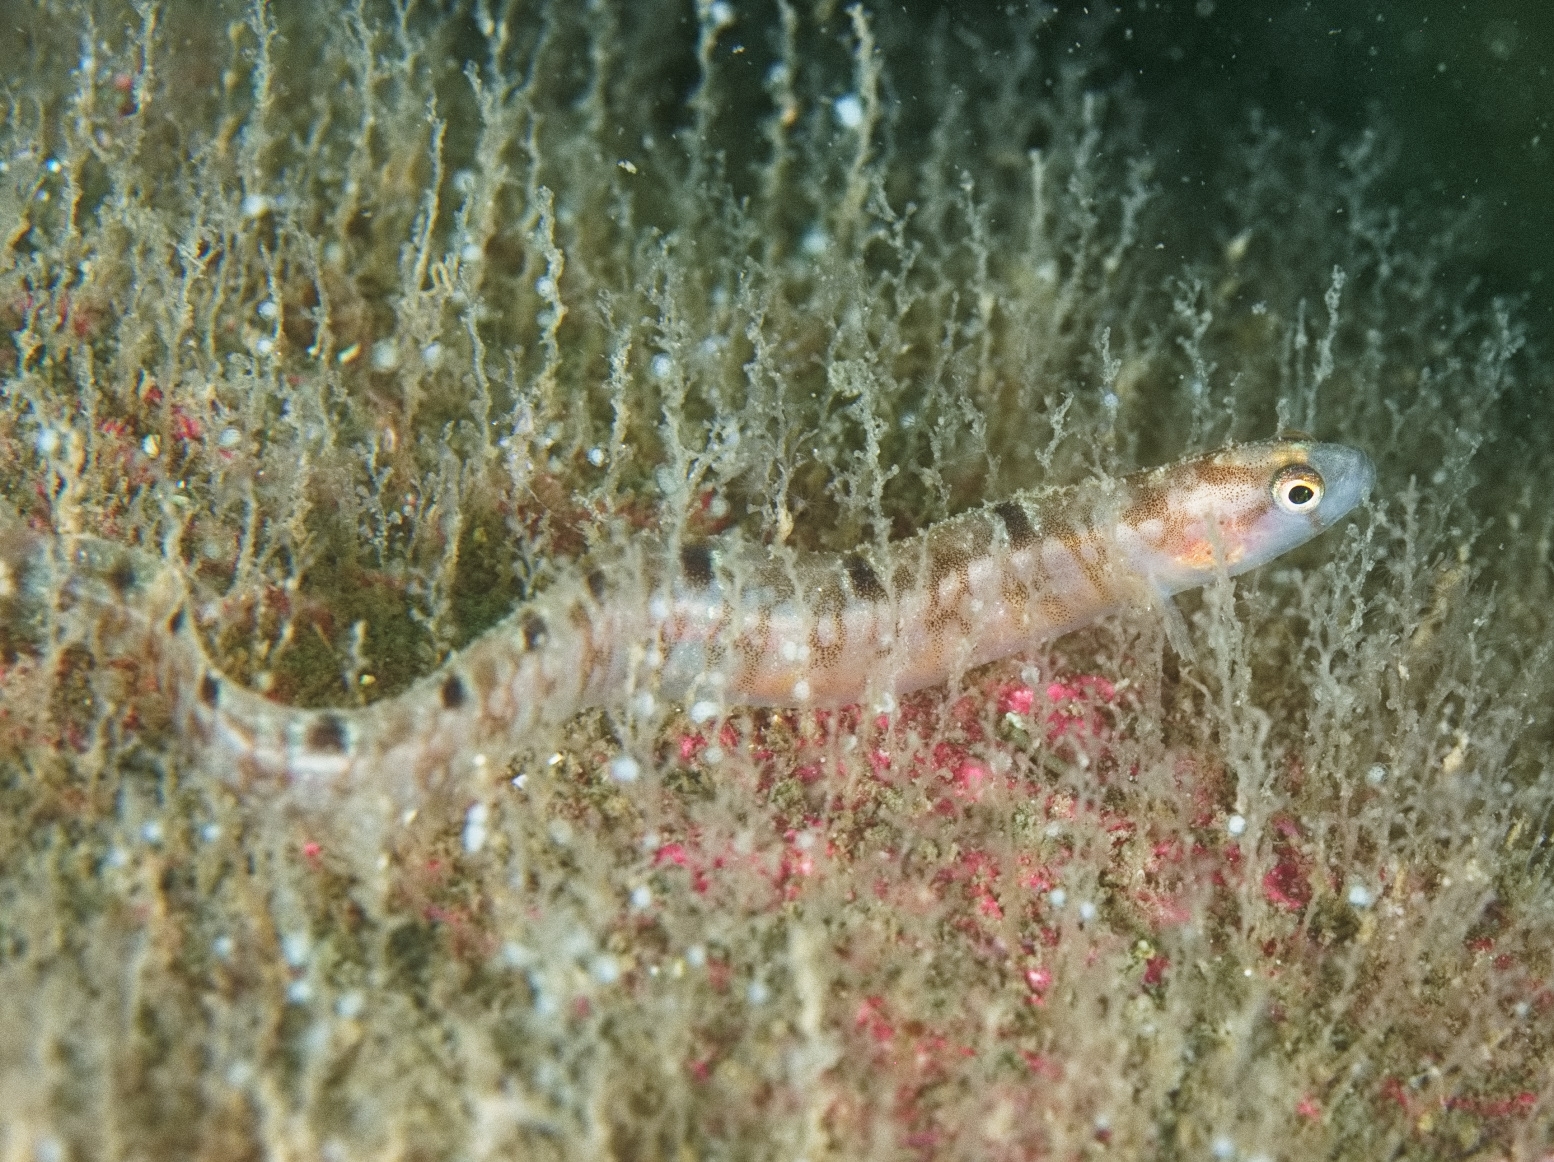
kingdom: Animalia
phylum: Chordata
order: Perciformes
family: Pholidae
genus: Pholis
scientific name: Pholis gunnellus
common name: Butterfish
